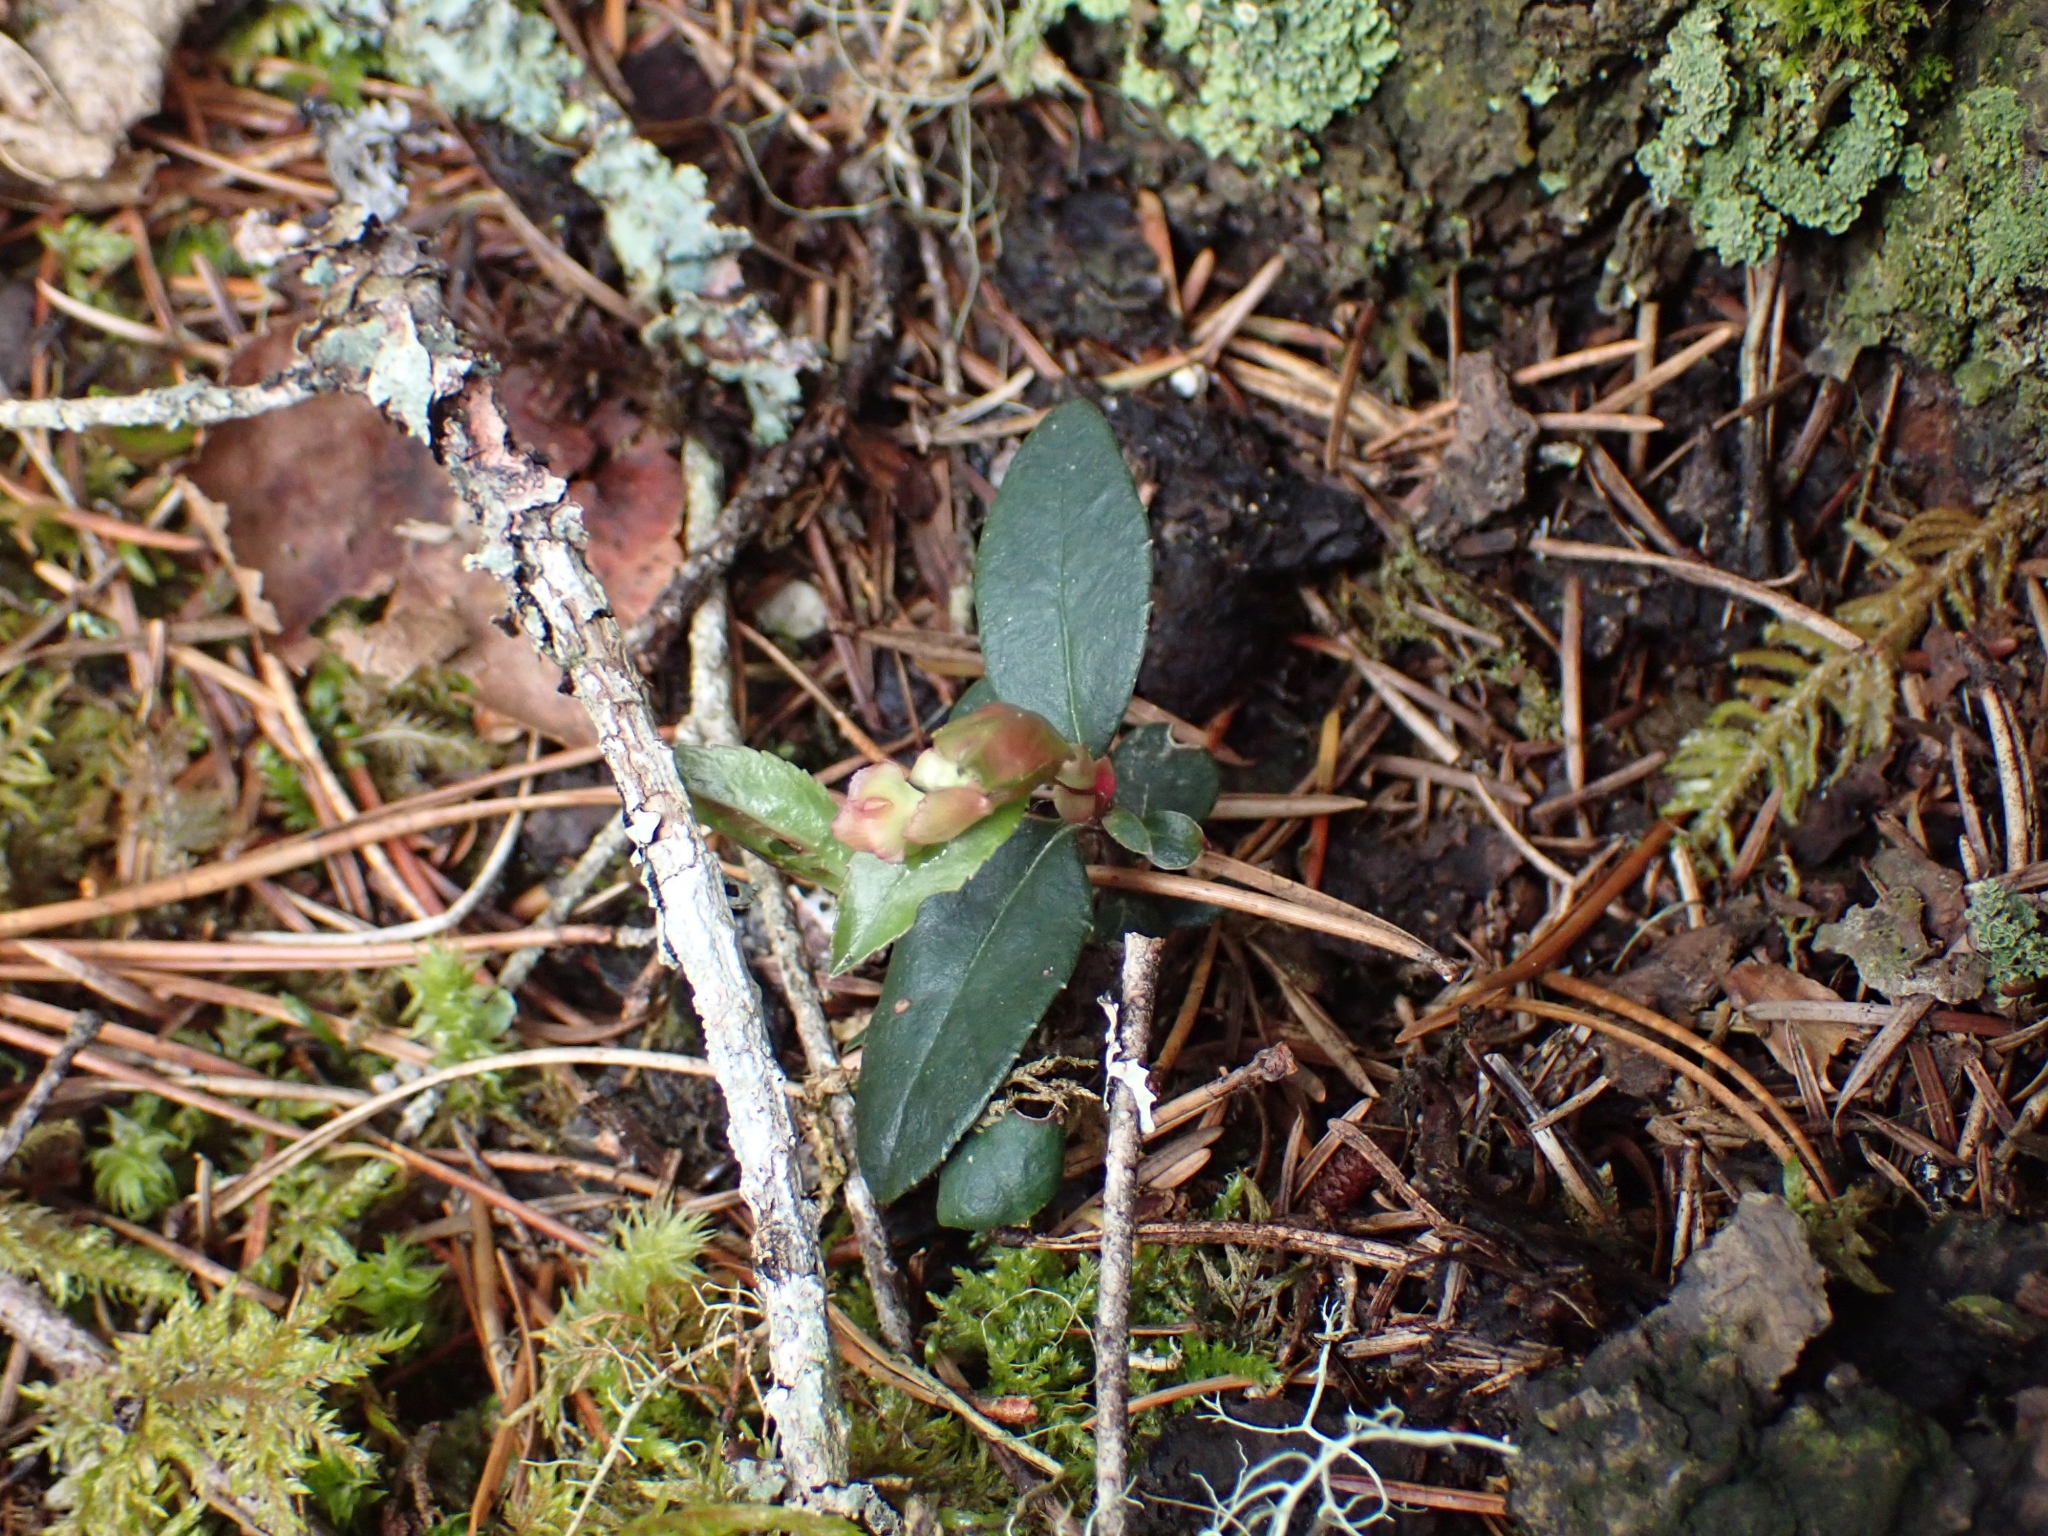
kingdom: Plantae
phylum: Tracheophyta
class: Magnoliopsida
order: Ericales
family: Ericaceae
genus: Chimaphila
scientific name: Chimaphila menziesii
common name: Menzies' pipsissewa
